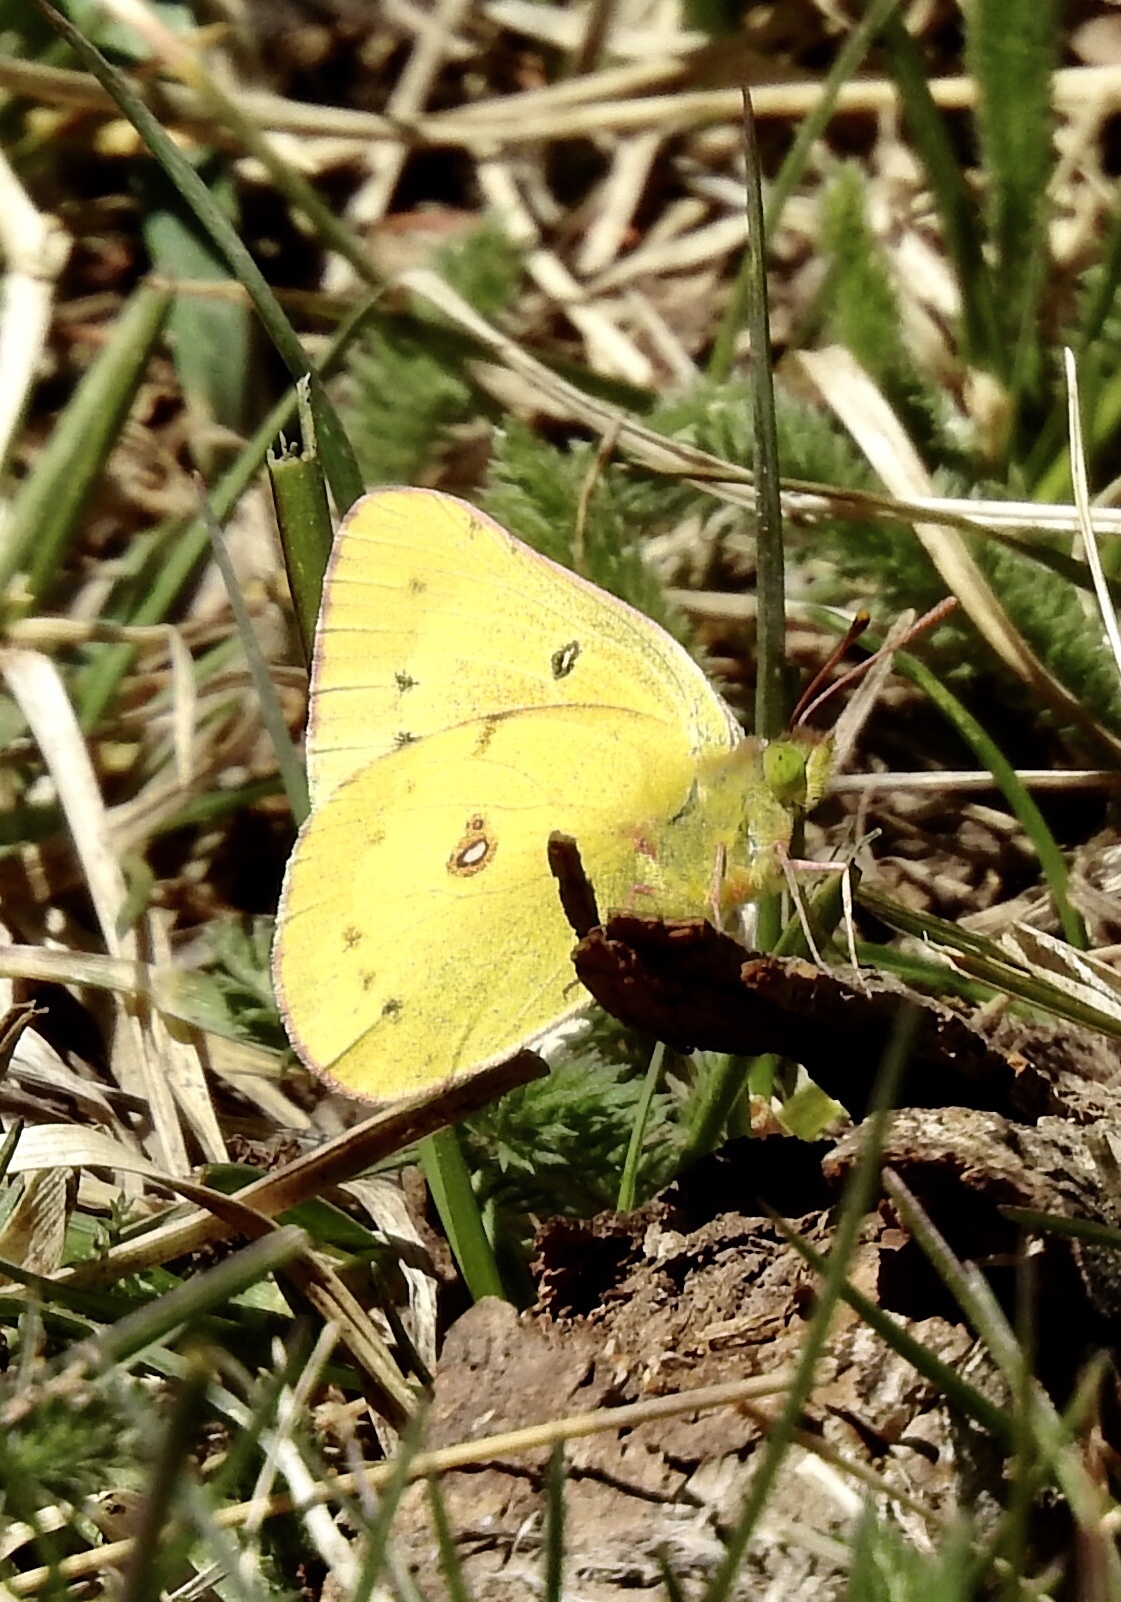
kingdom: Animalia
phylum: Arthropoda
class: Insecta
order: Lepidoptera
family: Pieridae
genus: Colias
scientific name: Colias eurytheme
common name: Alfalfa butterfly
